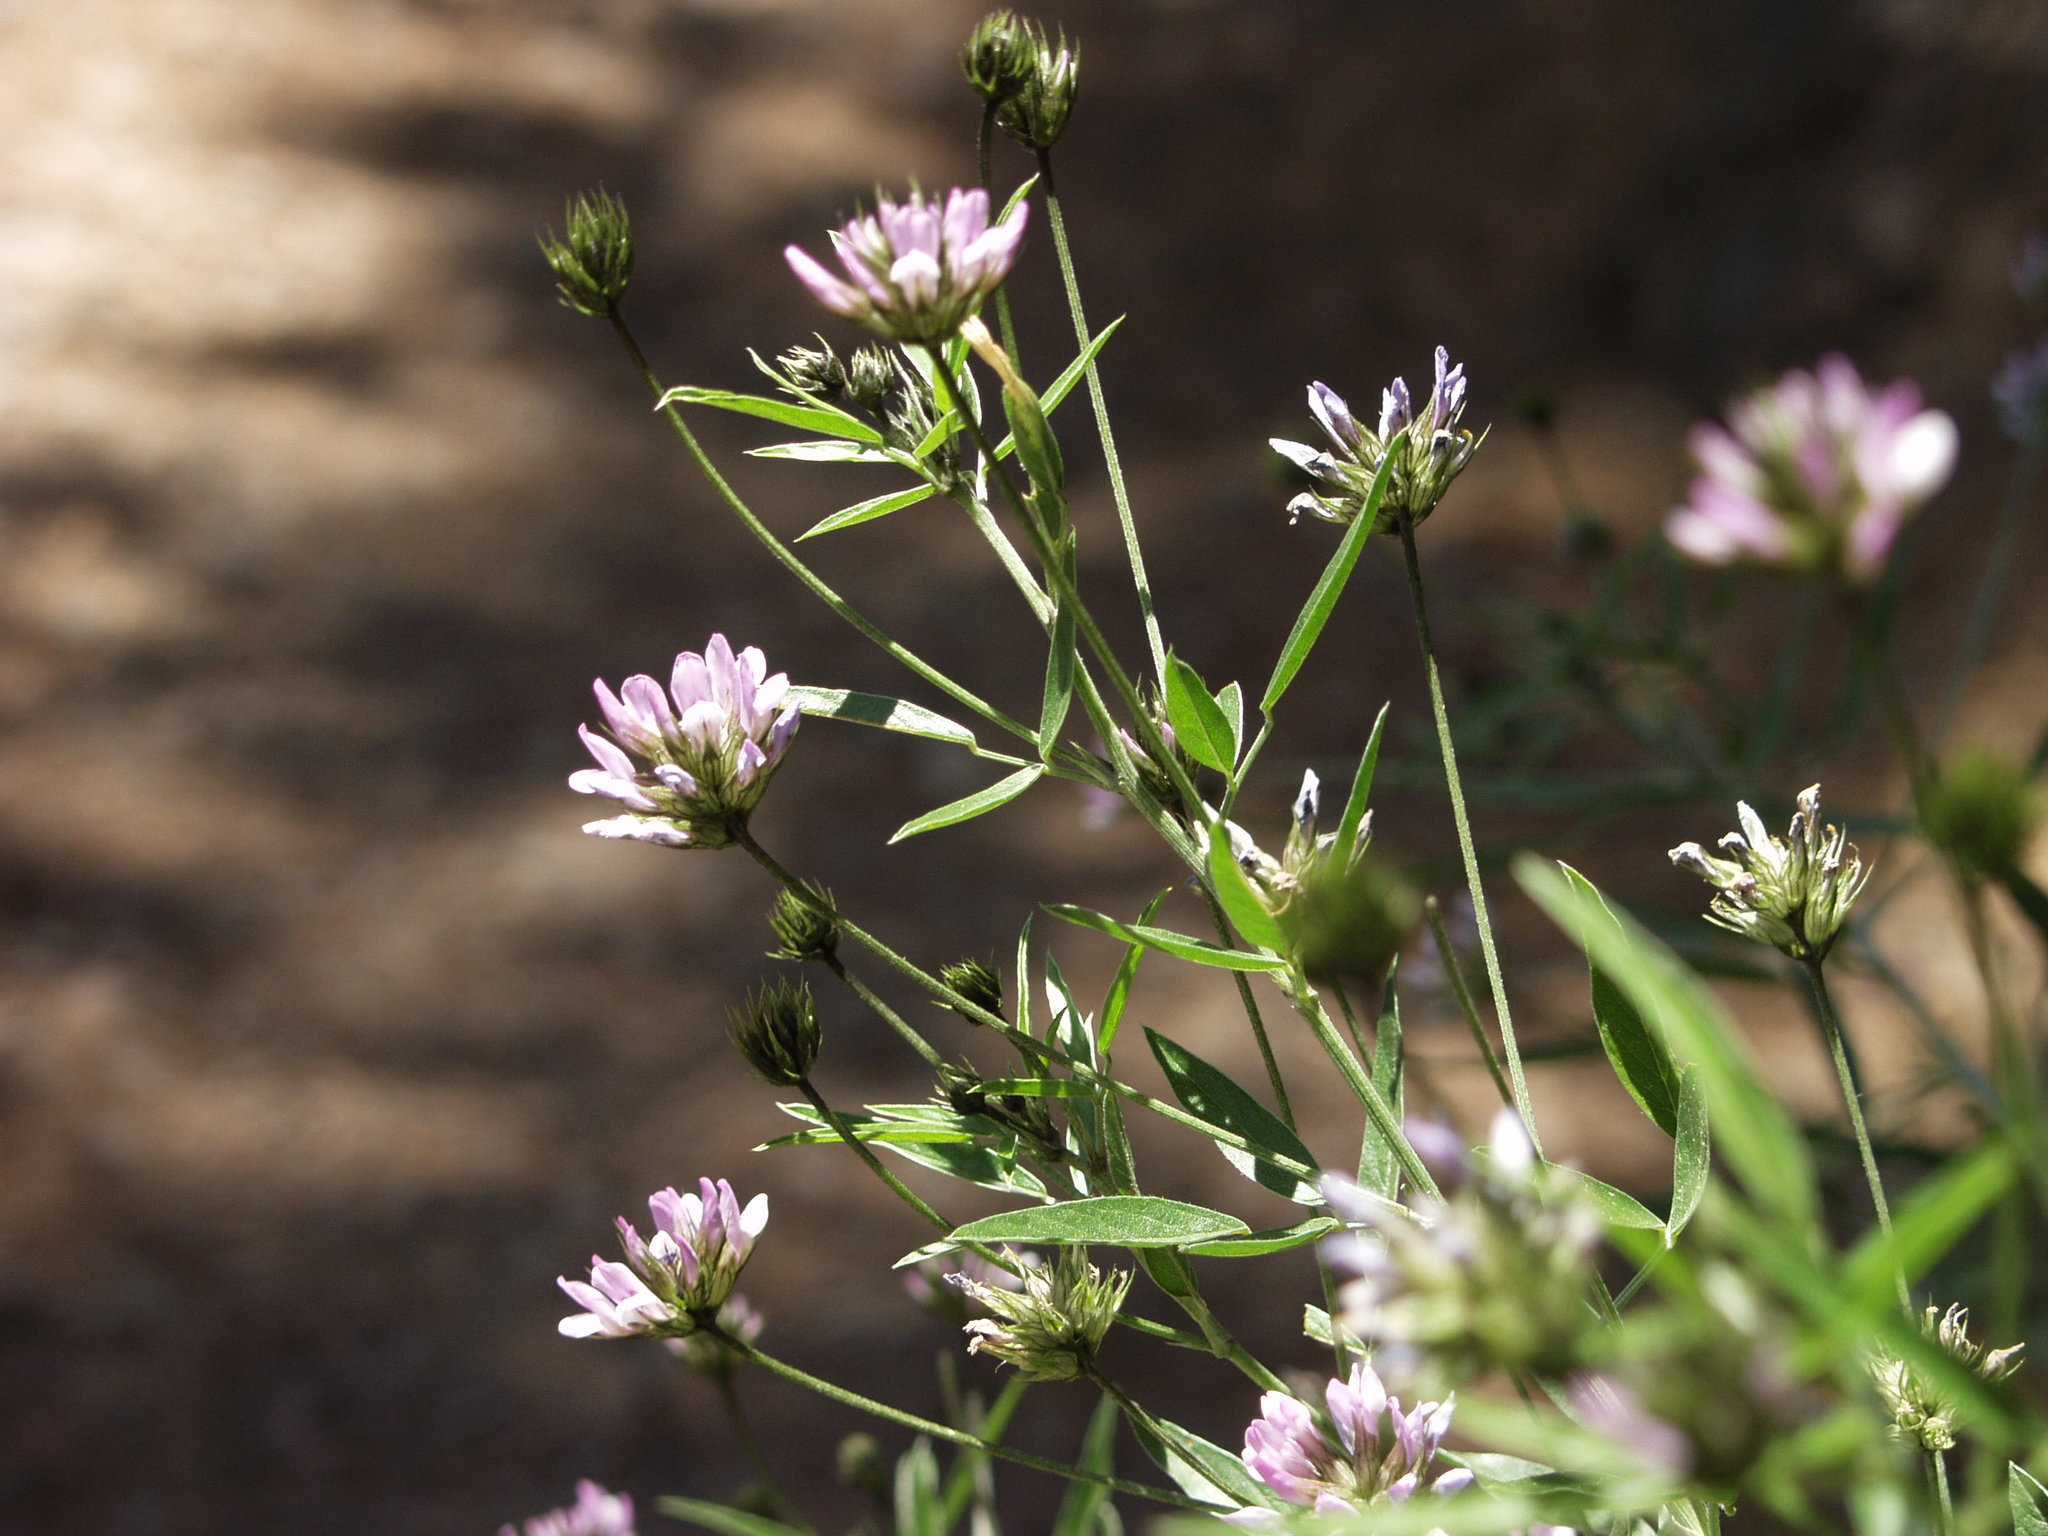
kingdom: Plantae
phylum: Tracheophyta
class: Magnoliopsida
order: Fabales
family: Fabaceae
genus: Bituminaria
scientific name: Bituminaria bituminosa
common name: Arabian pea
